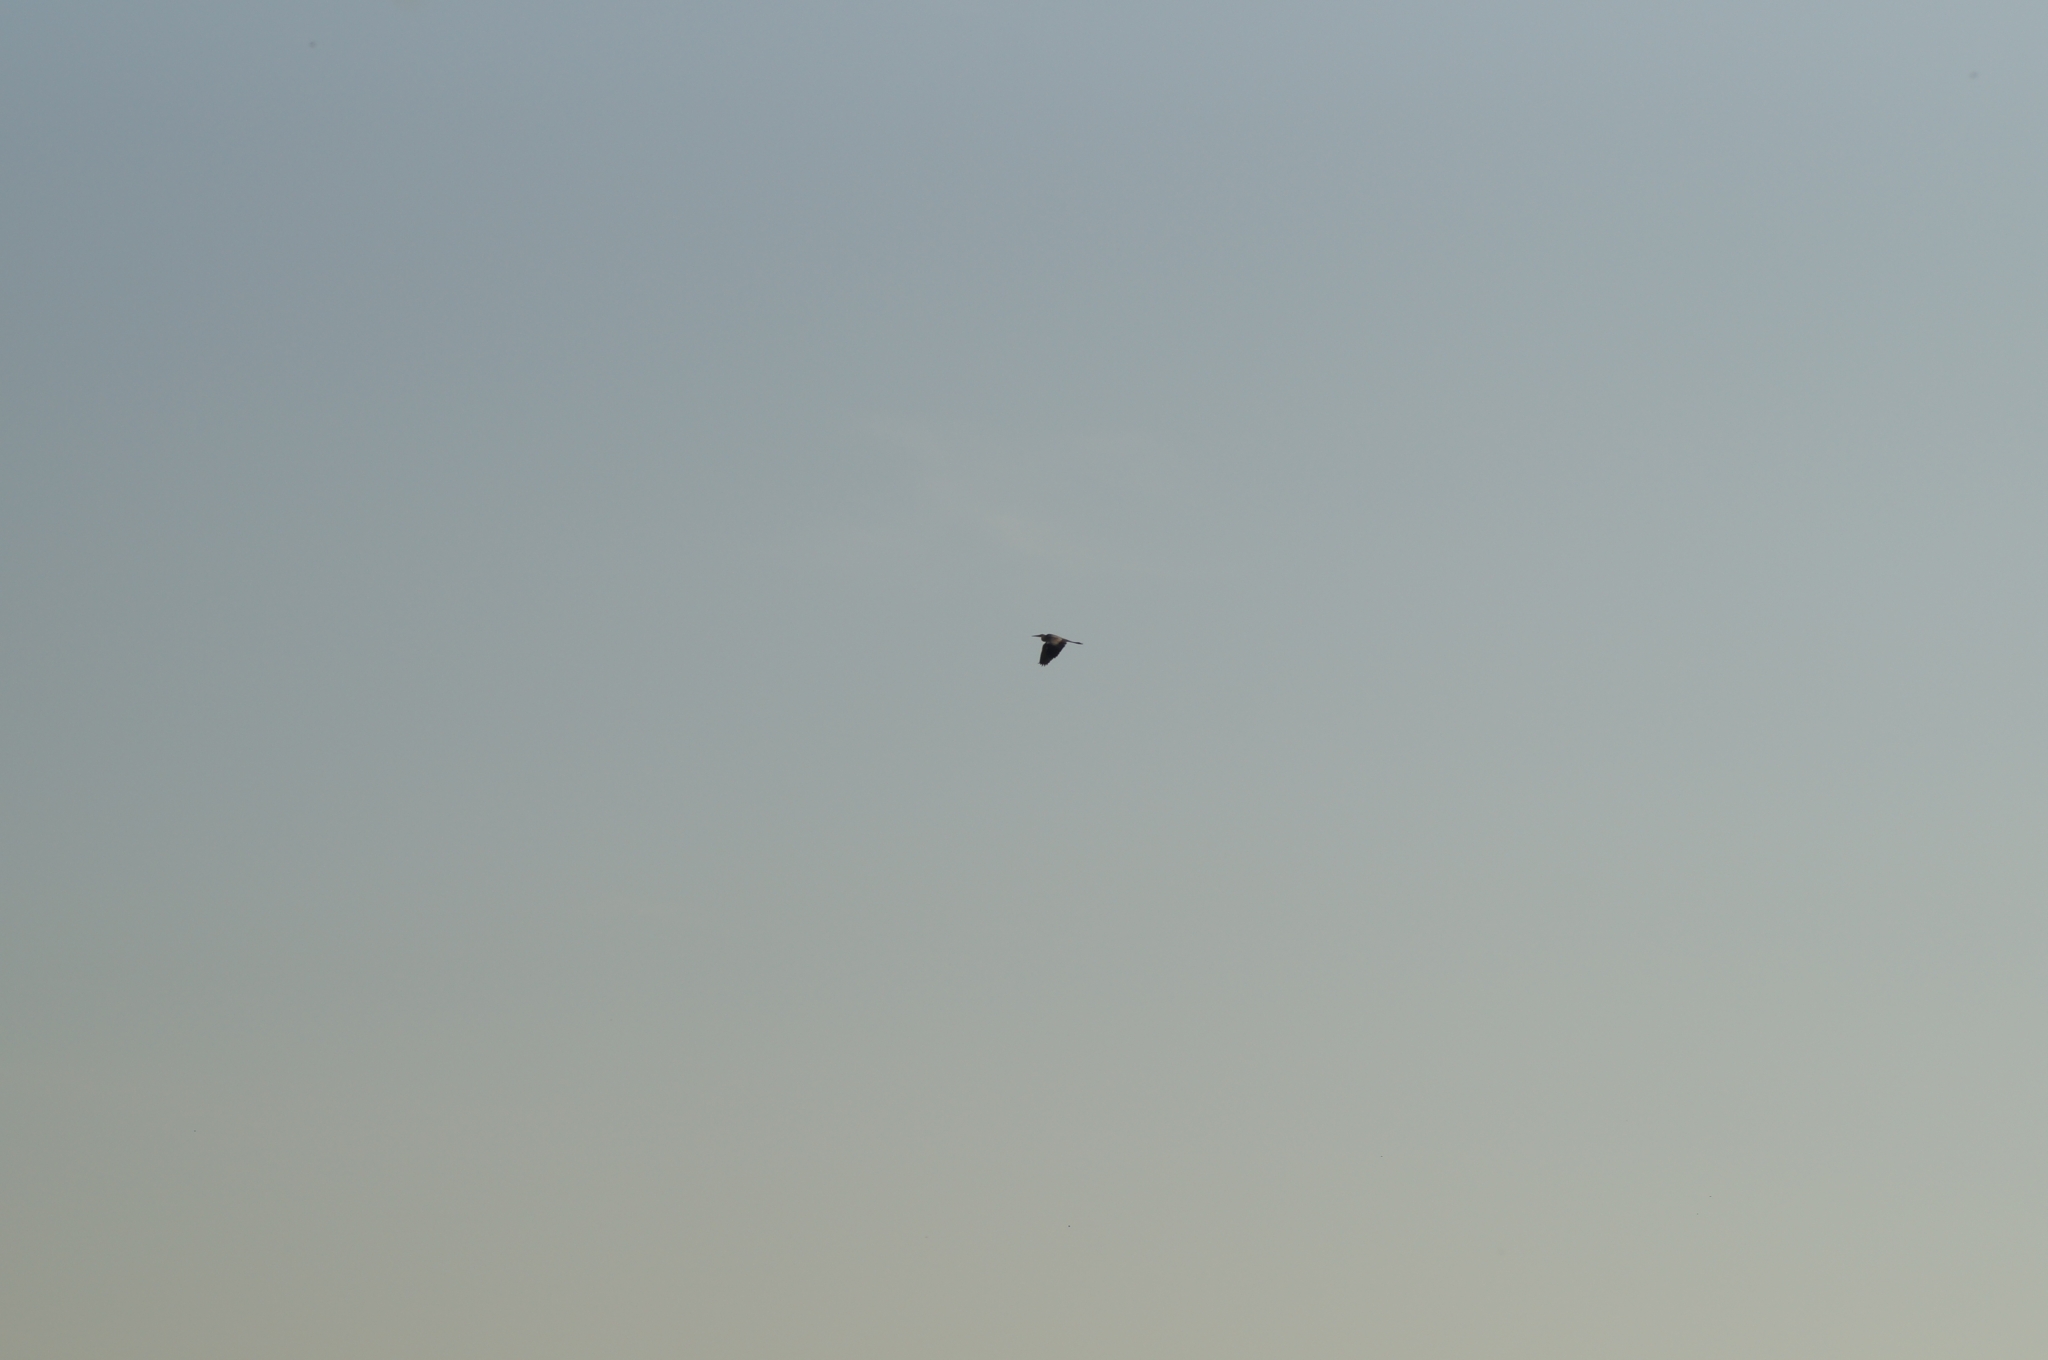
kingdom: Animalia
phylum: Chordata
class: Aves
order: Pelecaniformes
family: Ardeidae
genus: Ardea
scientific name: Ardea cinerea
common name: Grey heron
